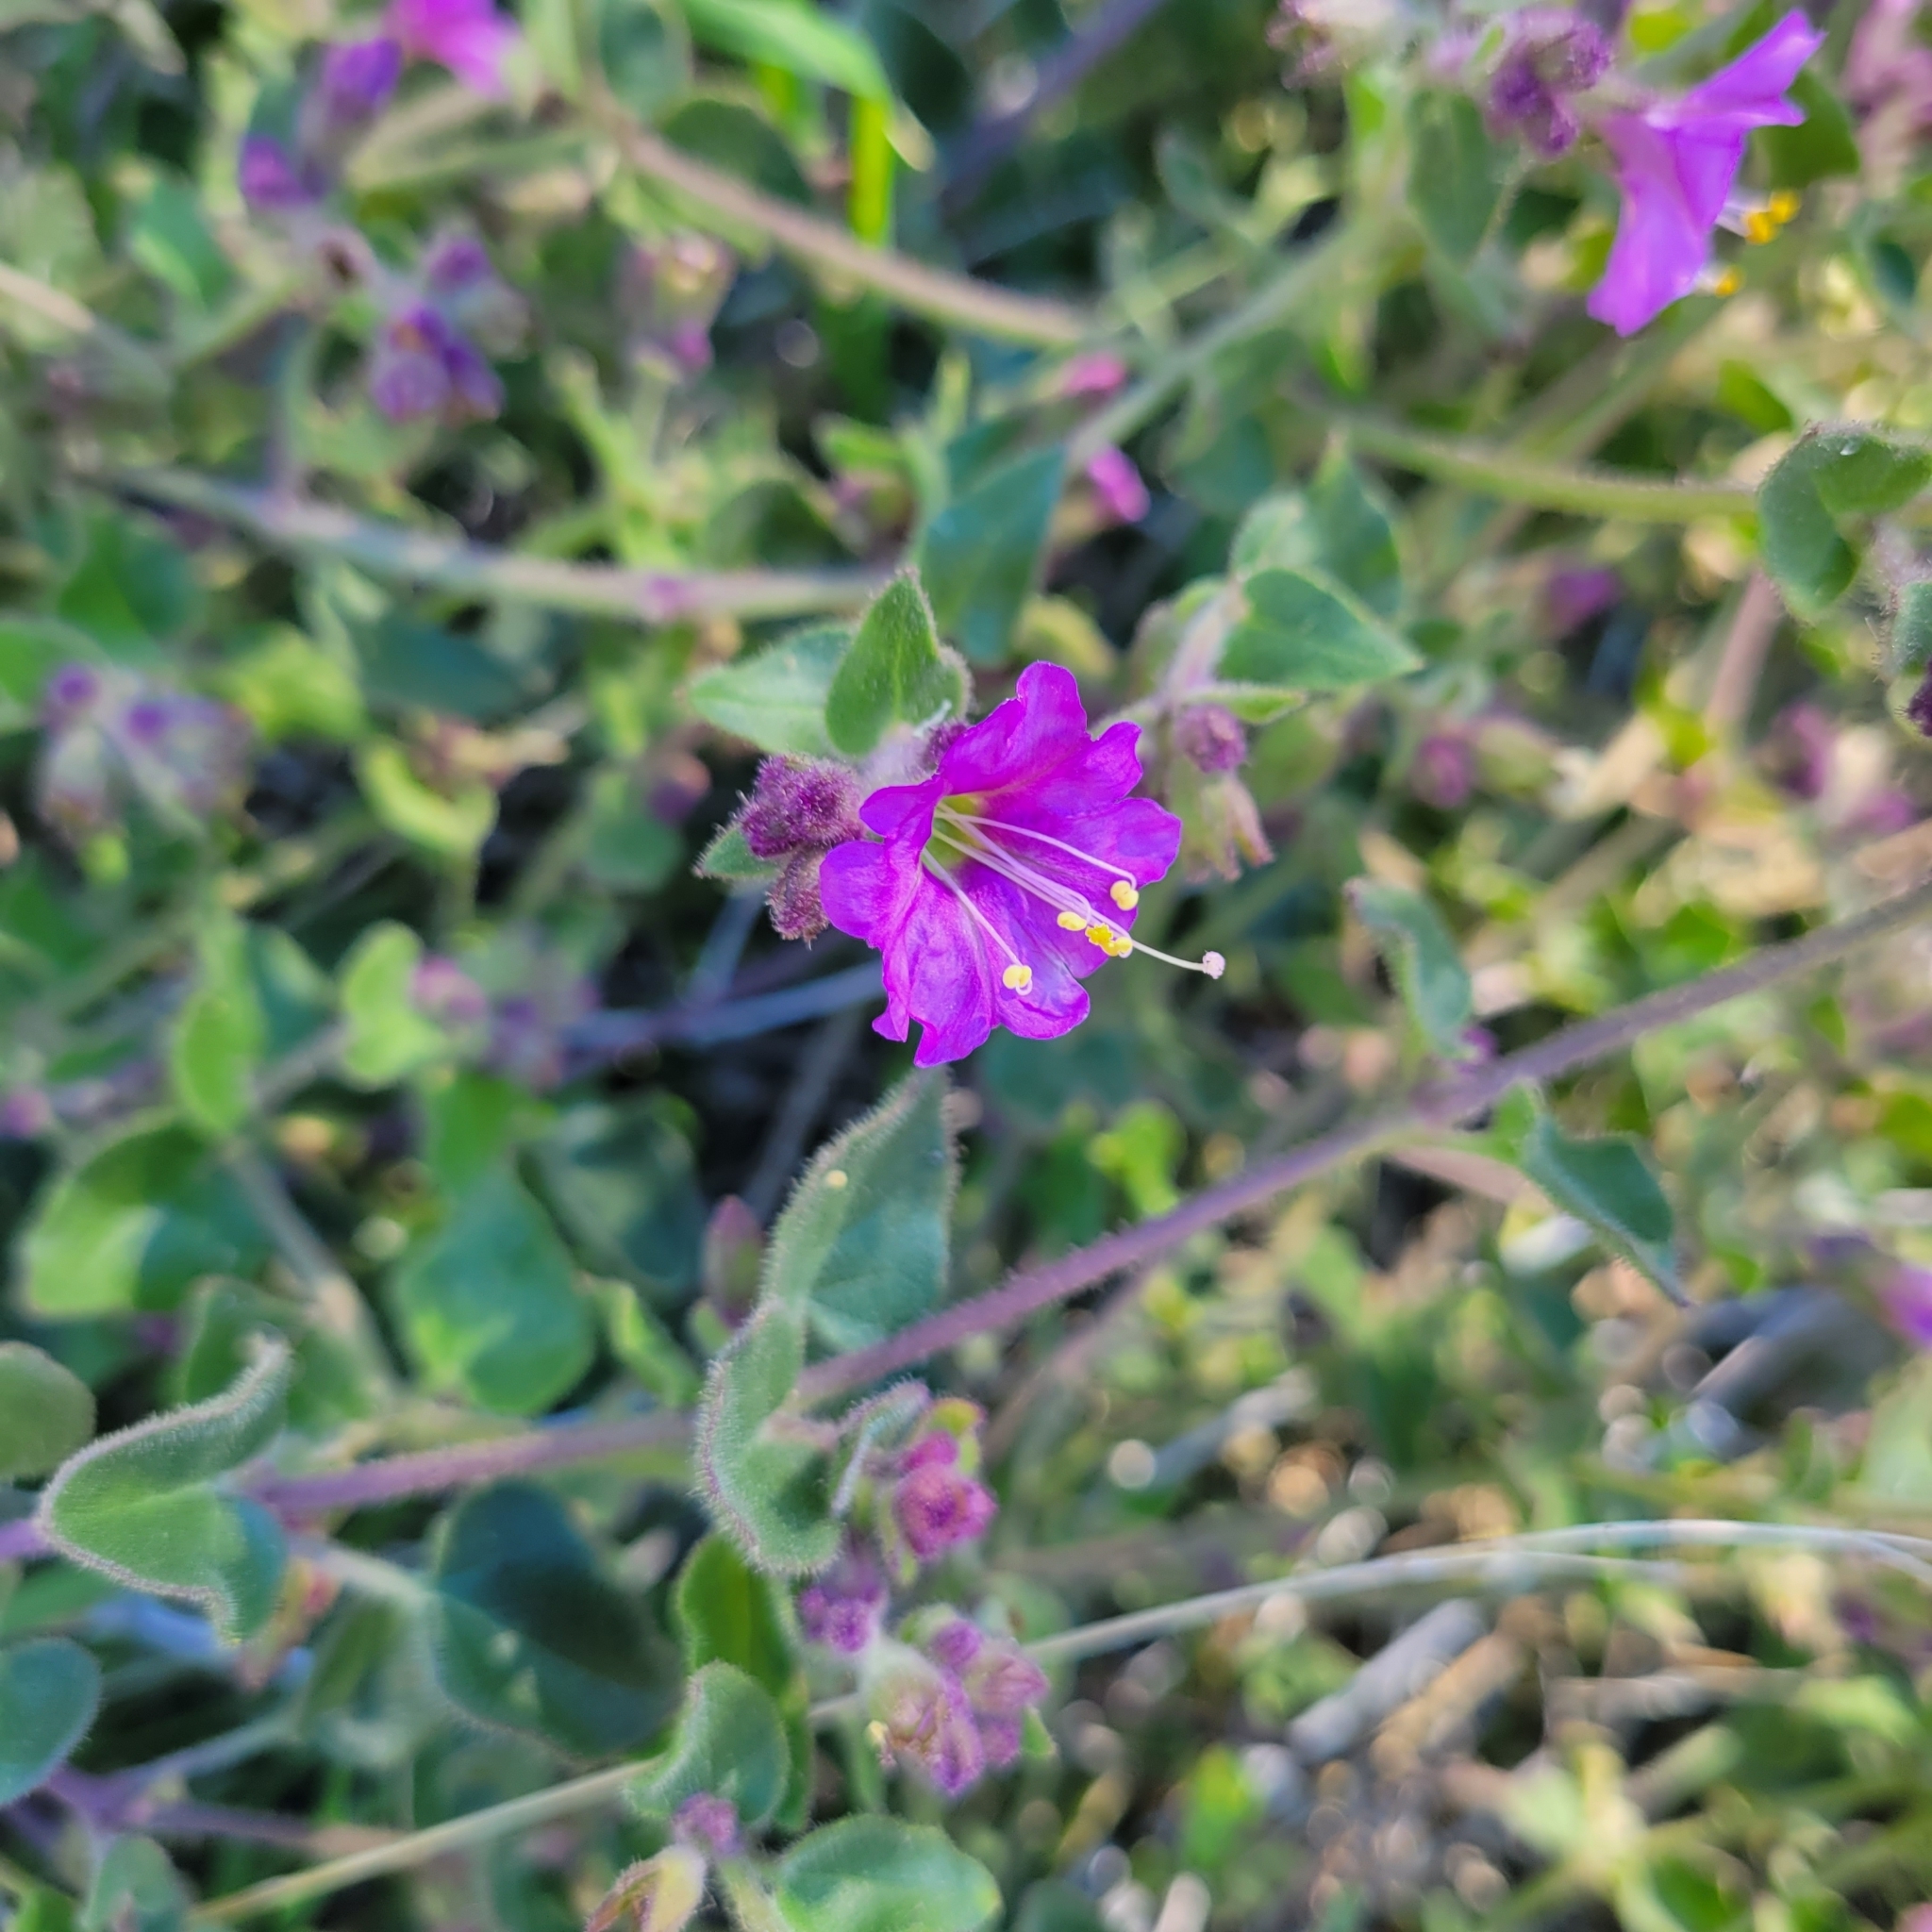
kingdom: Plantae
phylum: Tracheophyta
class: Magnoliopsida
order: Caryophyllales
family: Nyctaginaceae
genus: Mirabilis
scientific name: Mirabilis laevis
